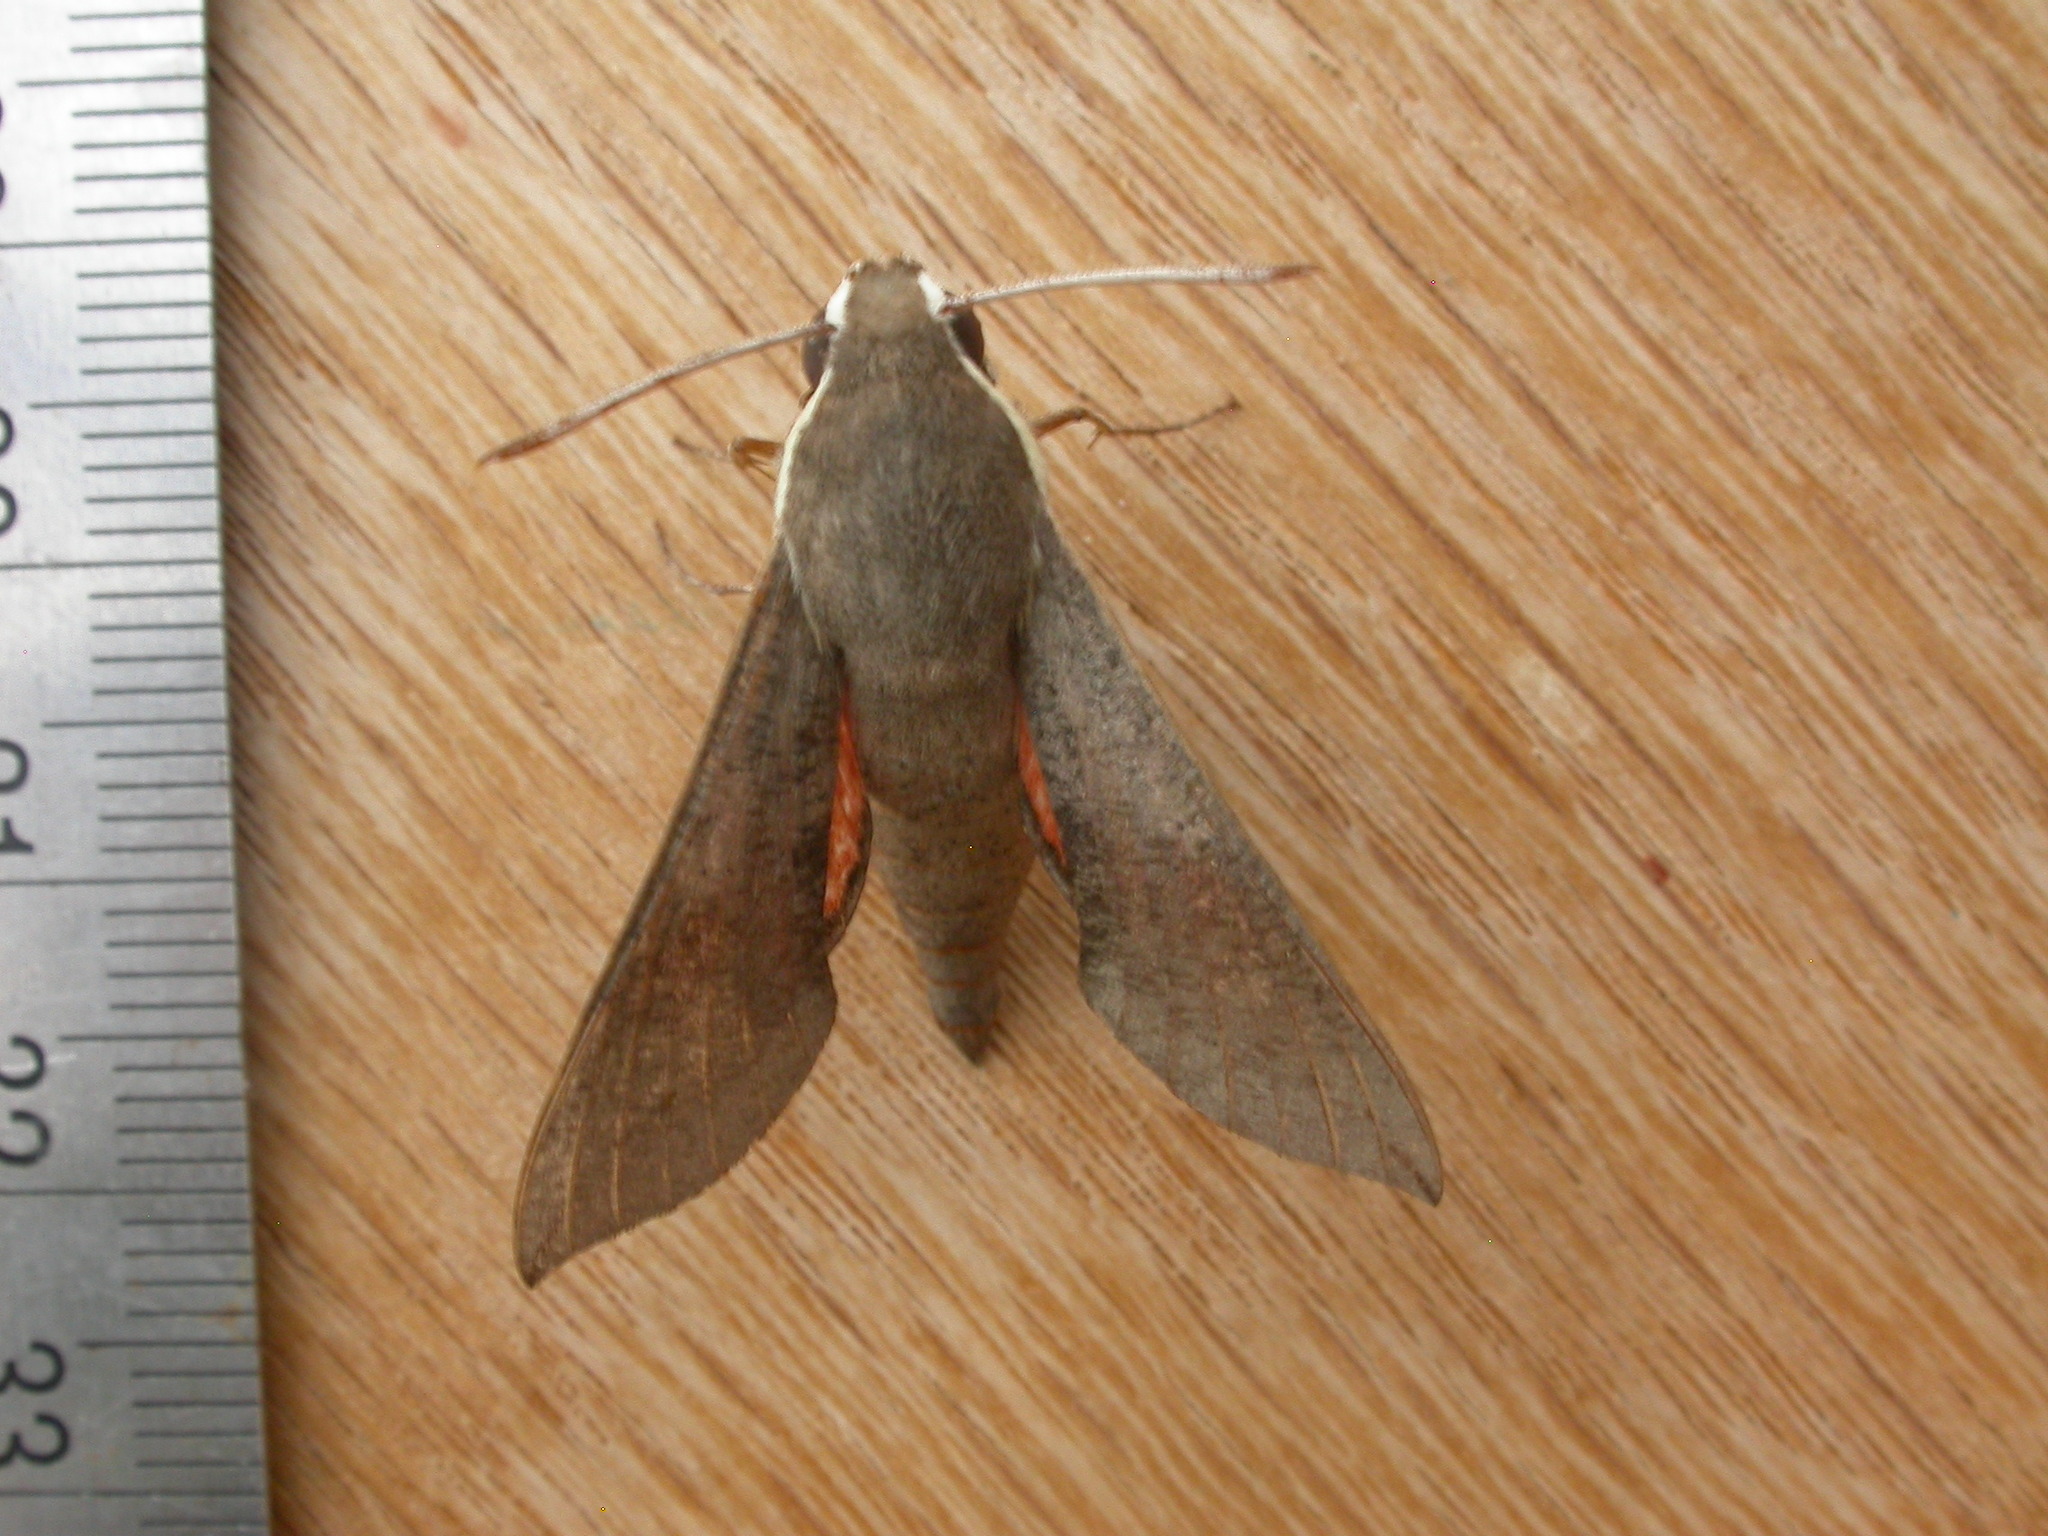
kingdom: Animalia
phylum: Arthropoda
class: Insecta
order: Lepidoptera
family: Sphingidae
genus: Hippotion
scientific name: Hippotion scrofa
